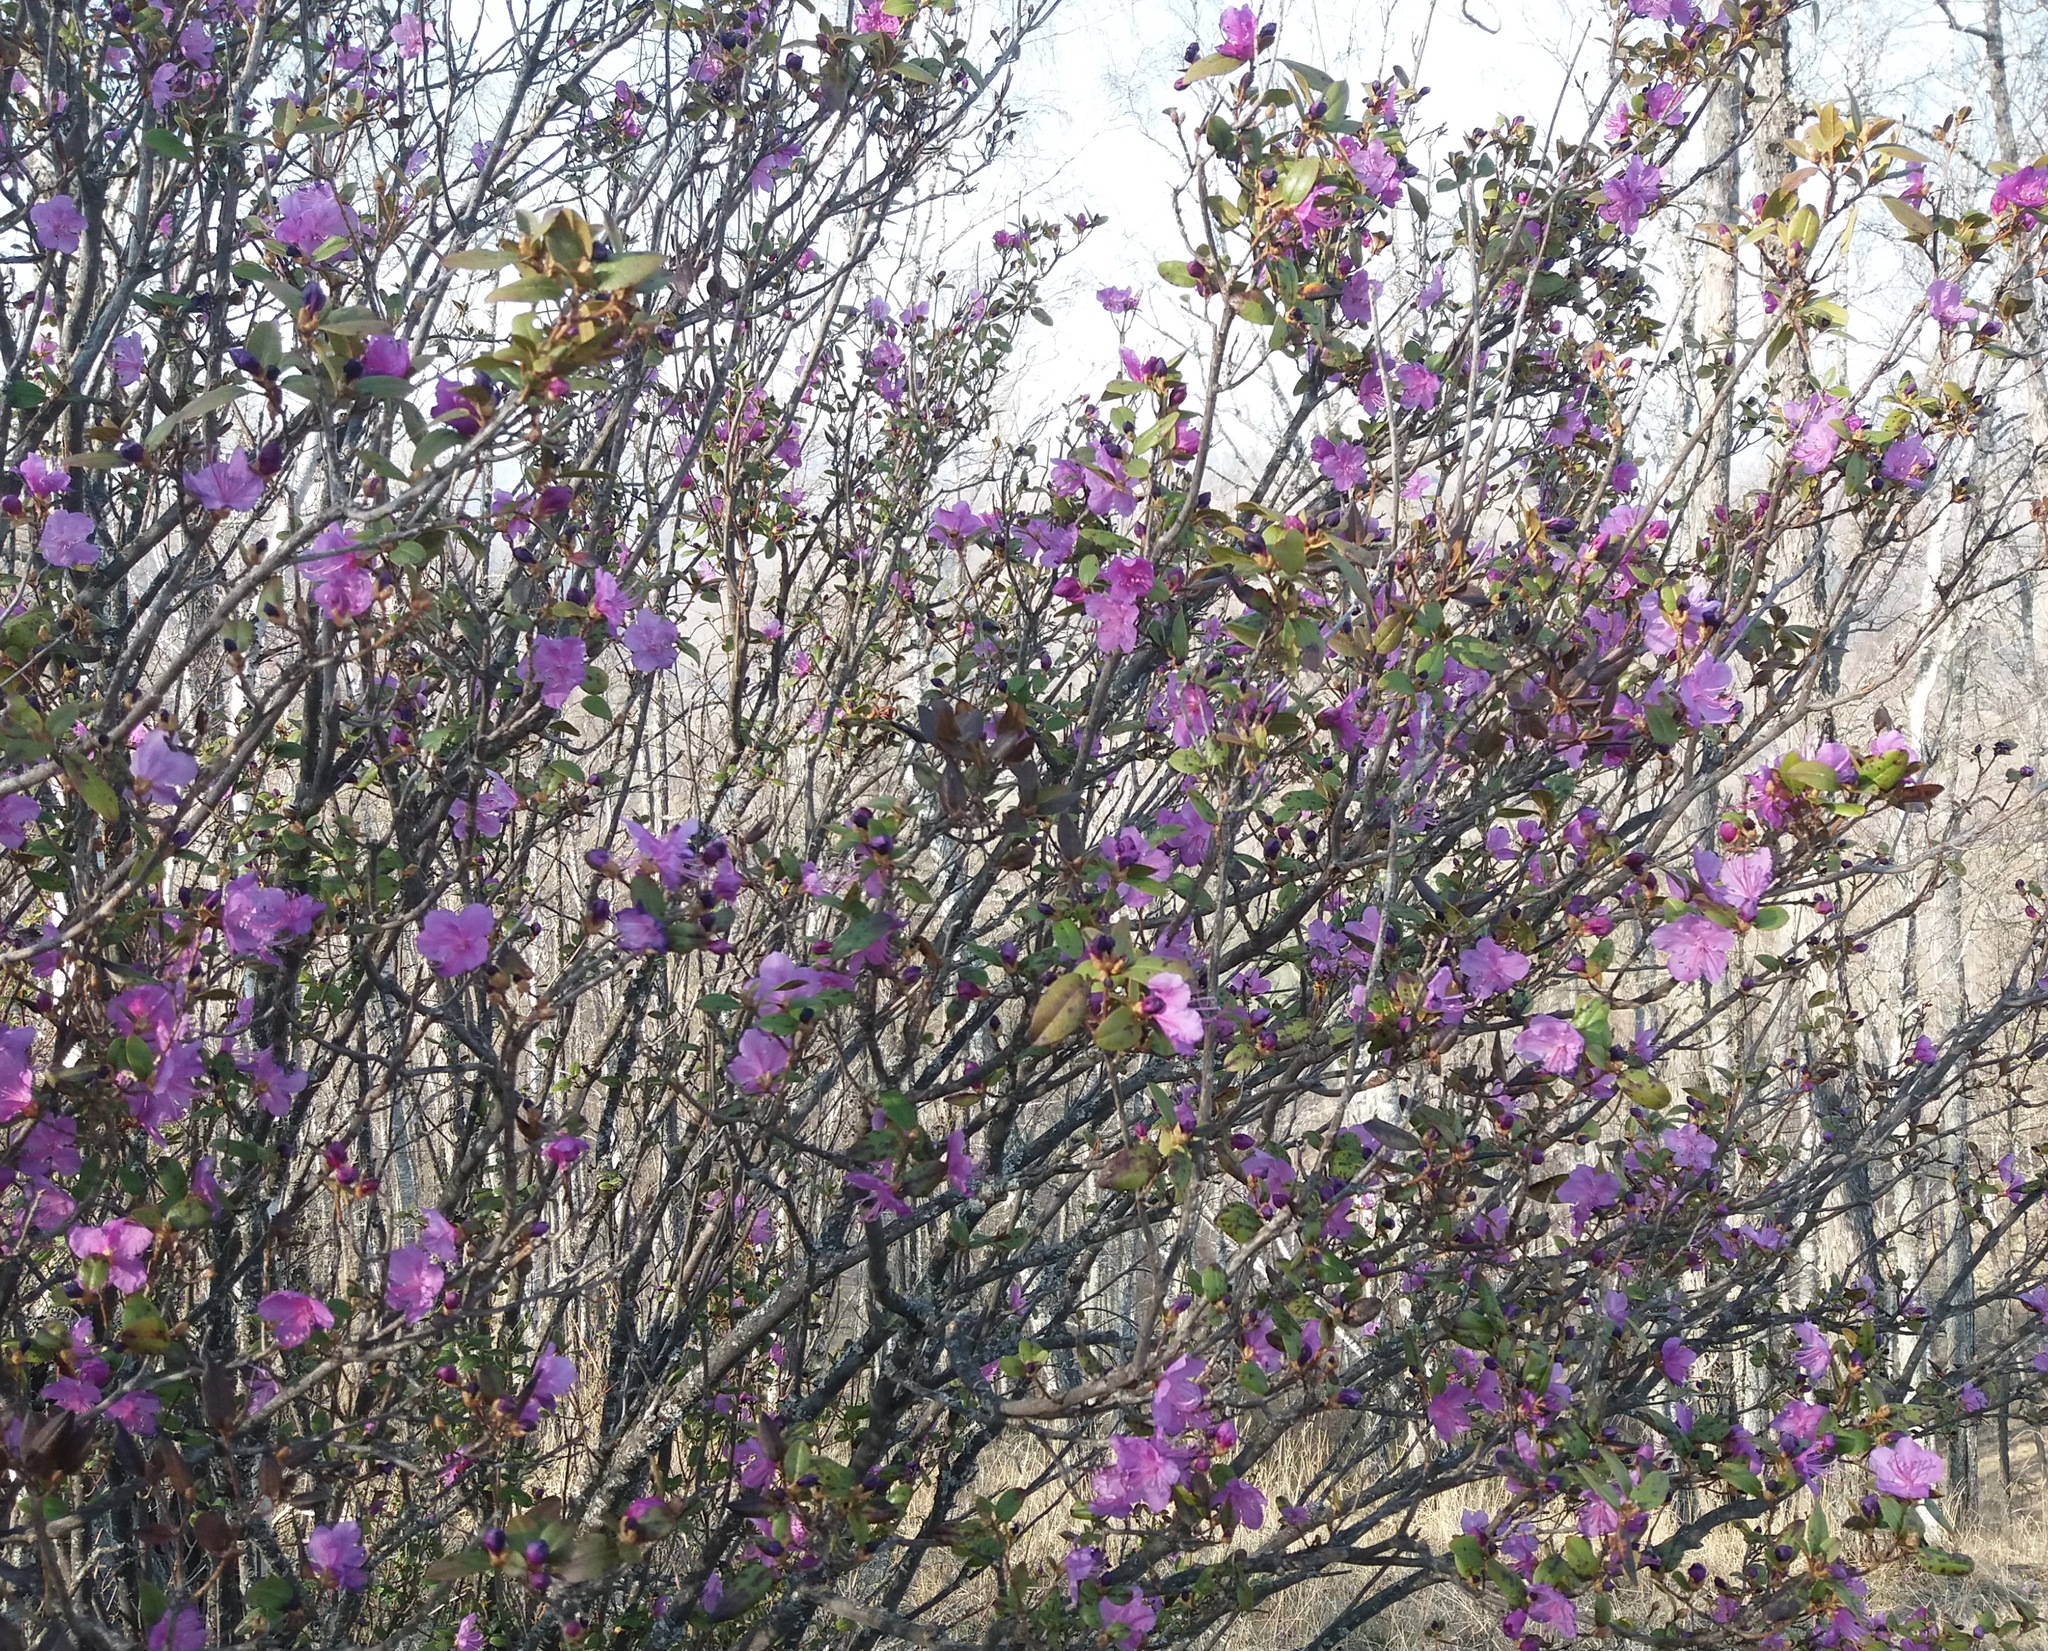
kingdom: Plantae
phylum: Tracheophyta
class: Magnoliopsida
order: Ericales
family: Ericaceae
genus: Rhododendron
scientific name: Rhododendron dauricum
